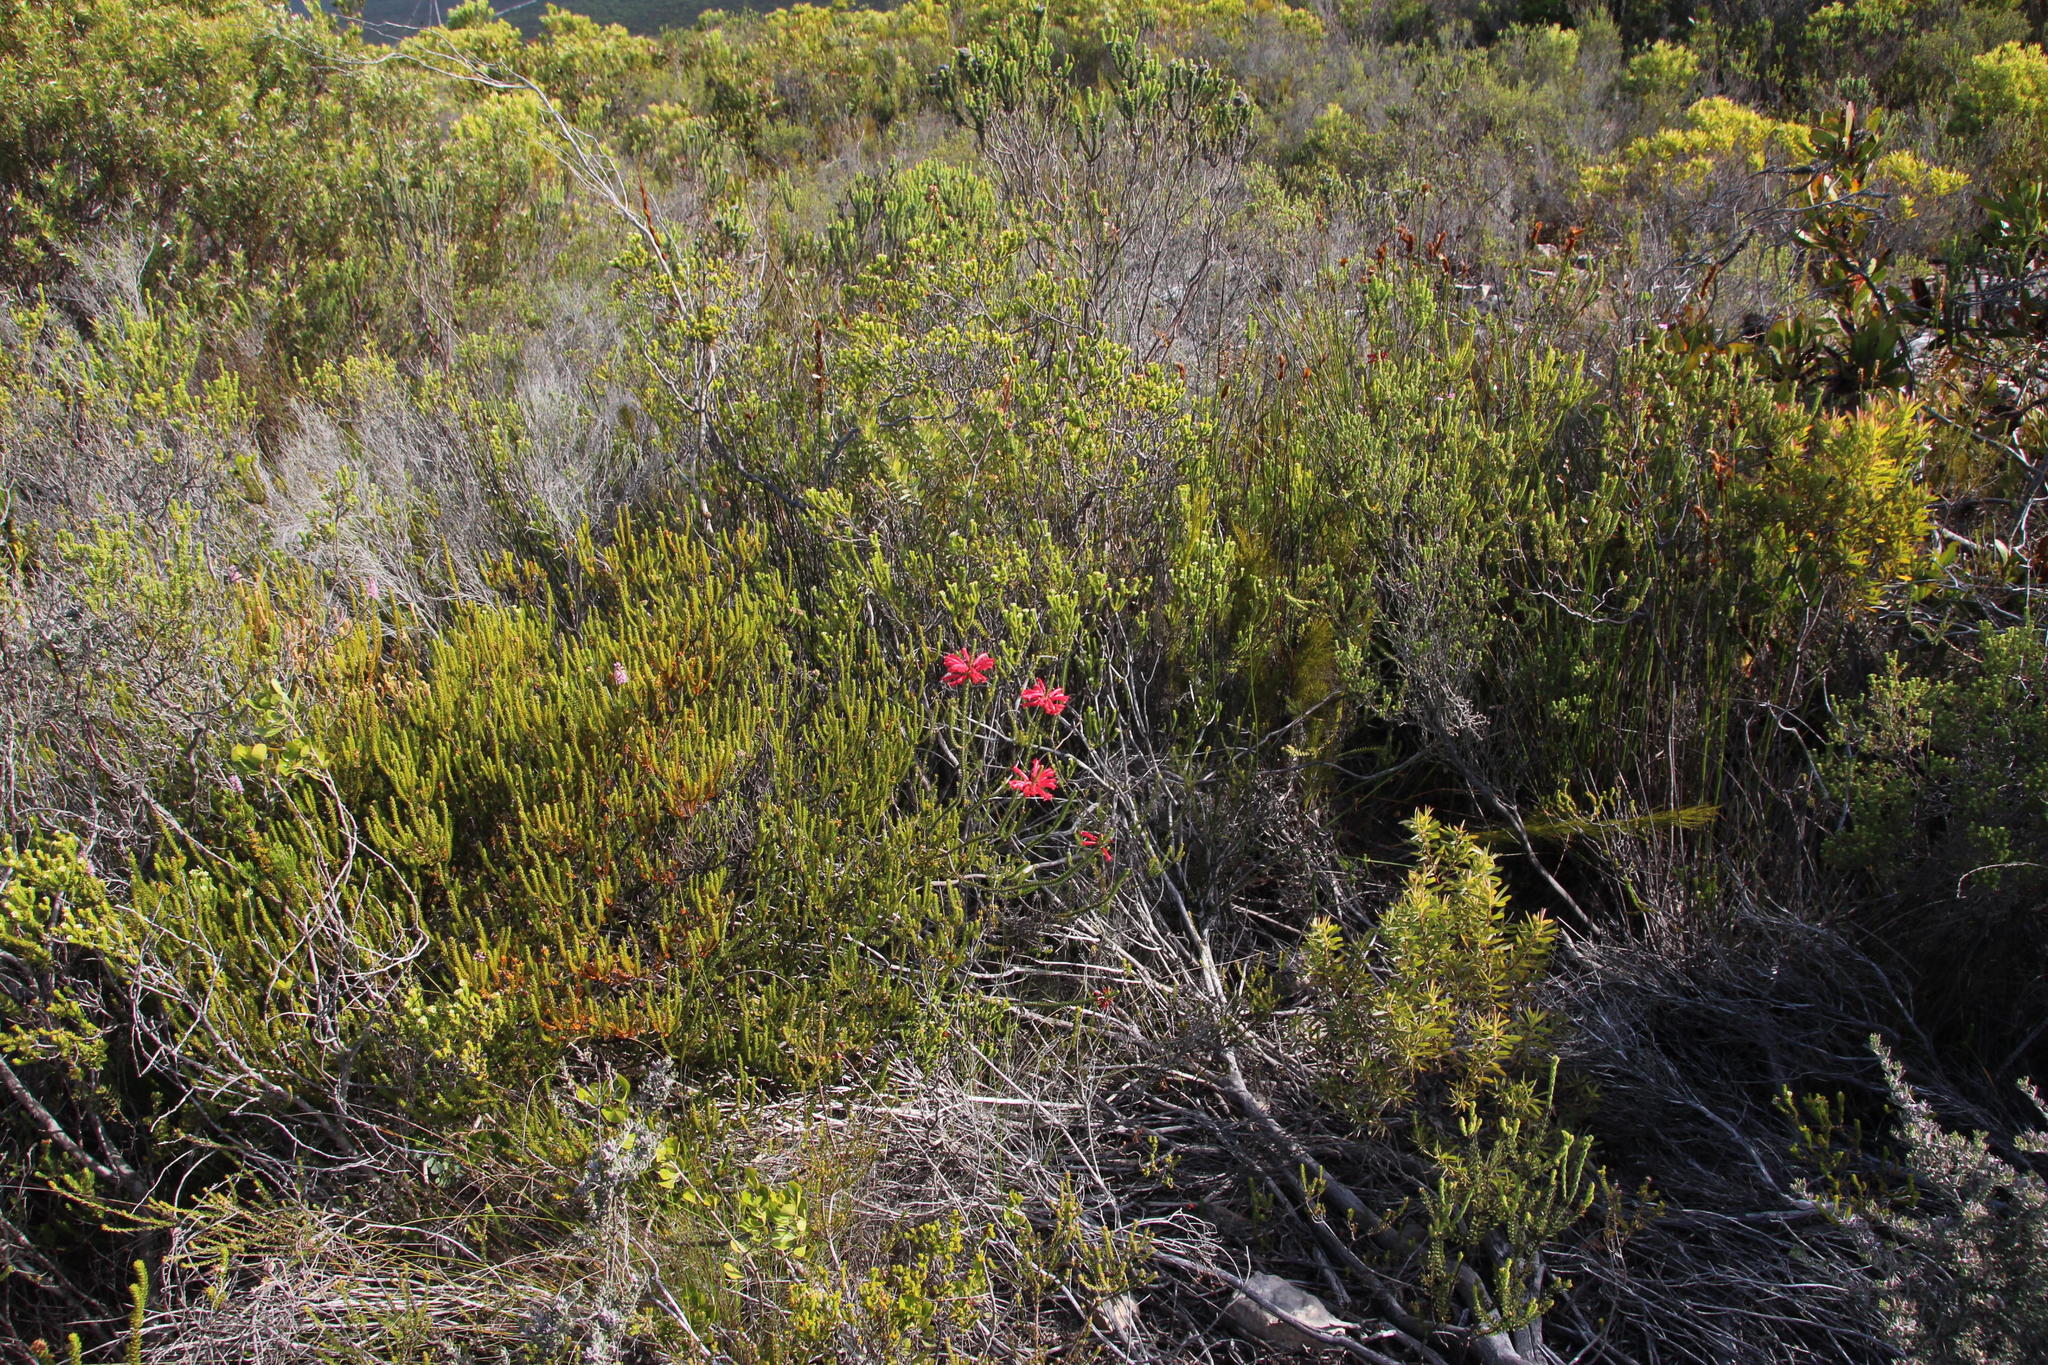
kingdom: Plantae
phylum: Tracheophyta
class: Magnoliopsida
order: Ericales
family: Ericaceae
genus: Erica
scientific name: Erica regia
